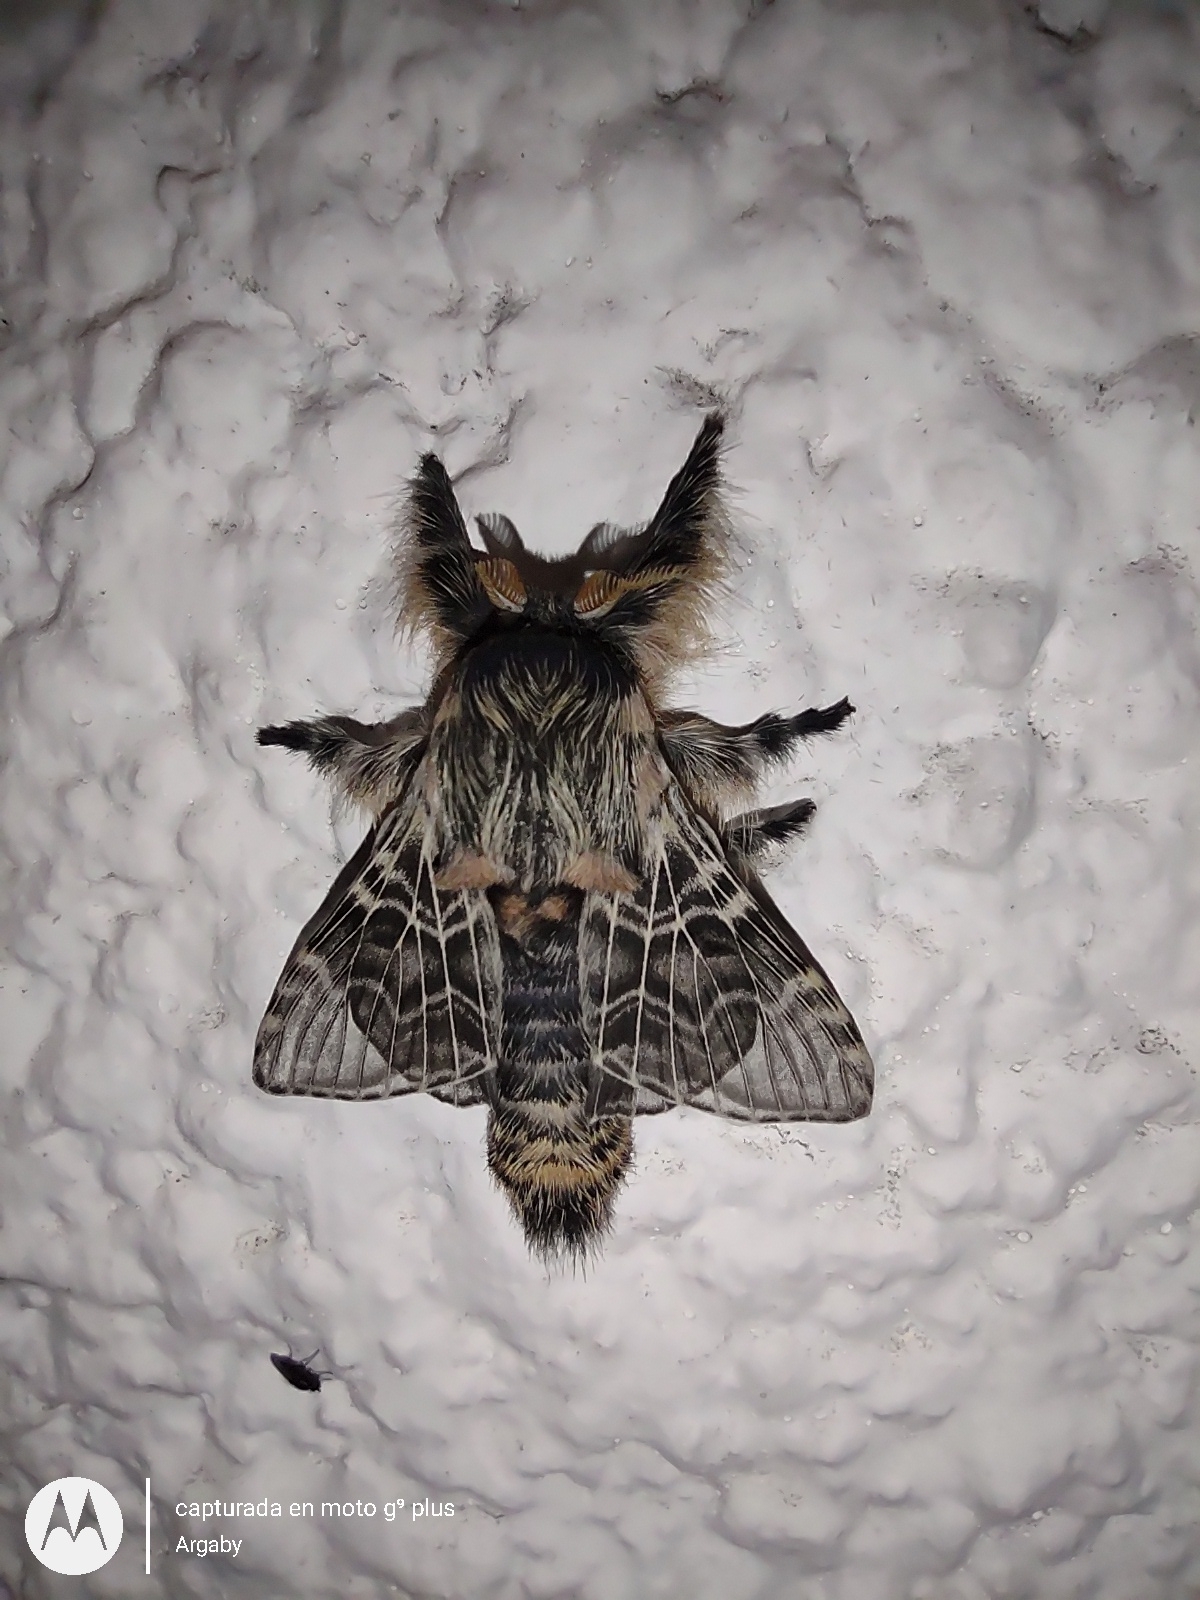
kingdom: Animalia
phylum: Arthropoda
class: Insecta
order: Lepidoptera
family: Lasiocampidae
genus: Labedera
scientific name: Labedera
